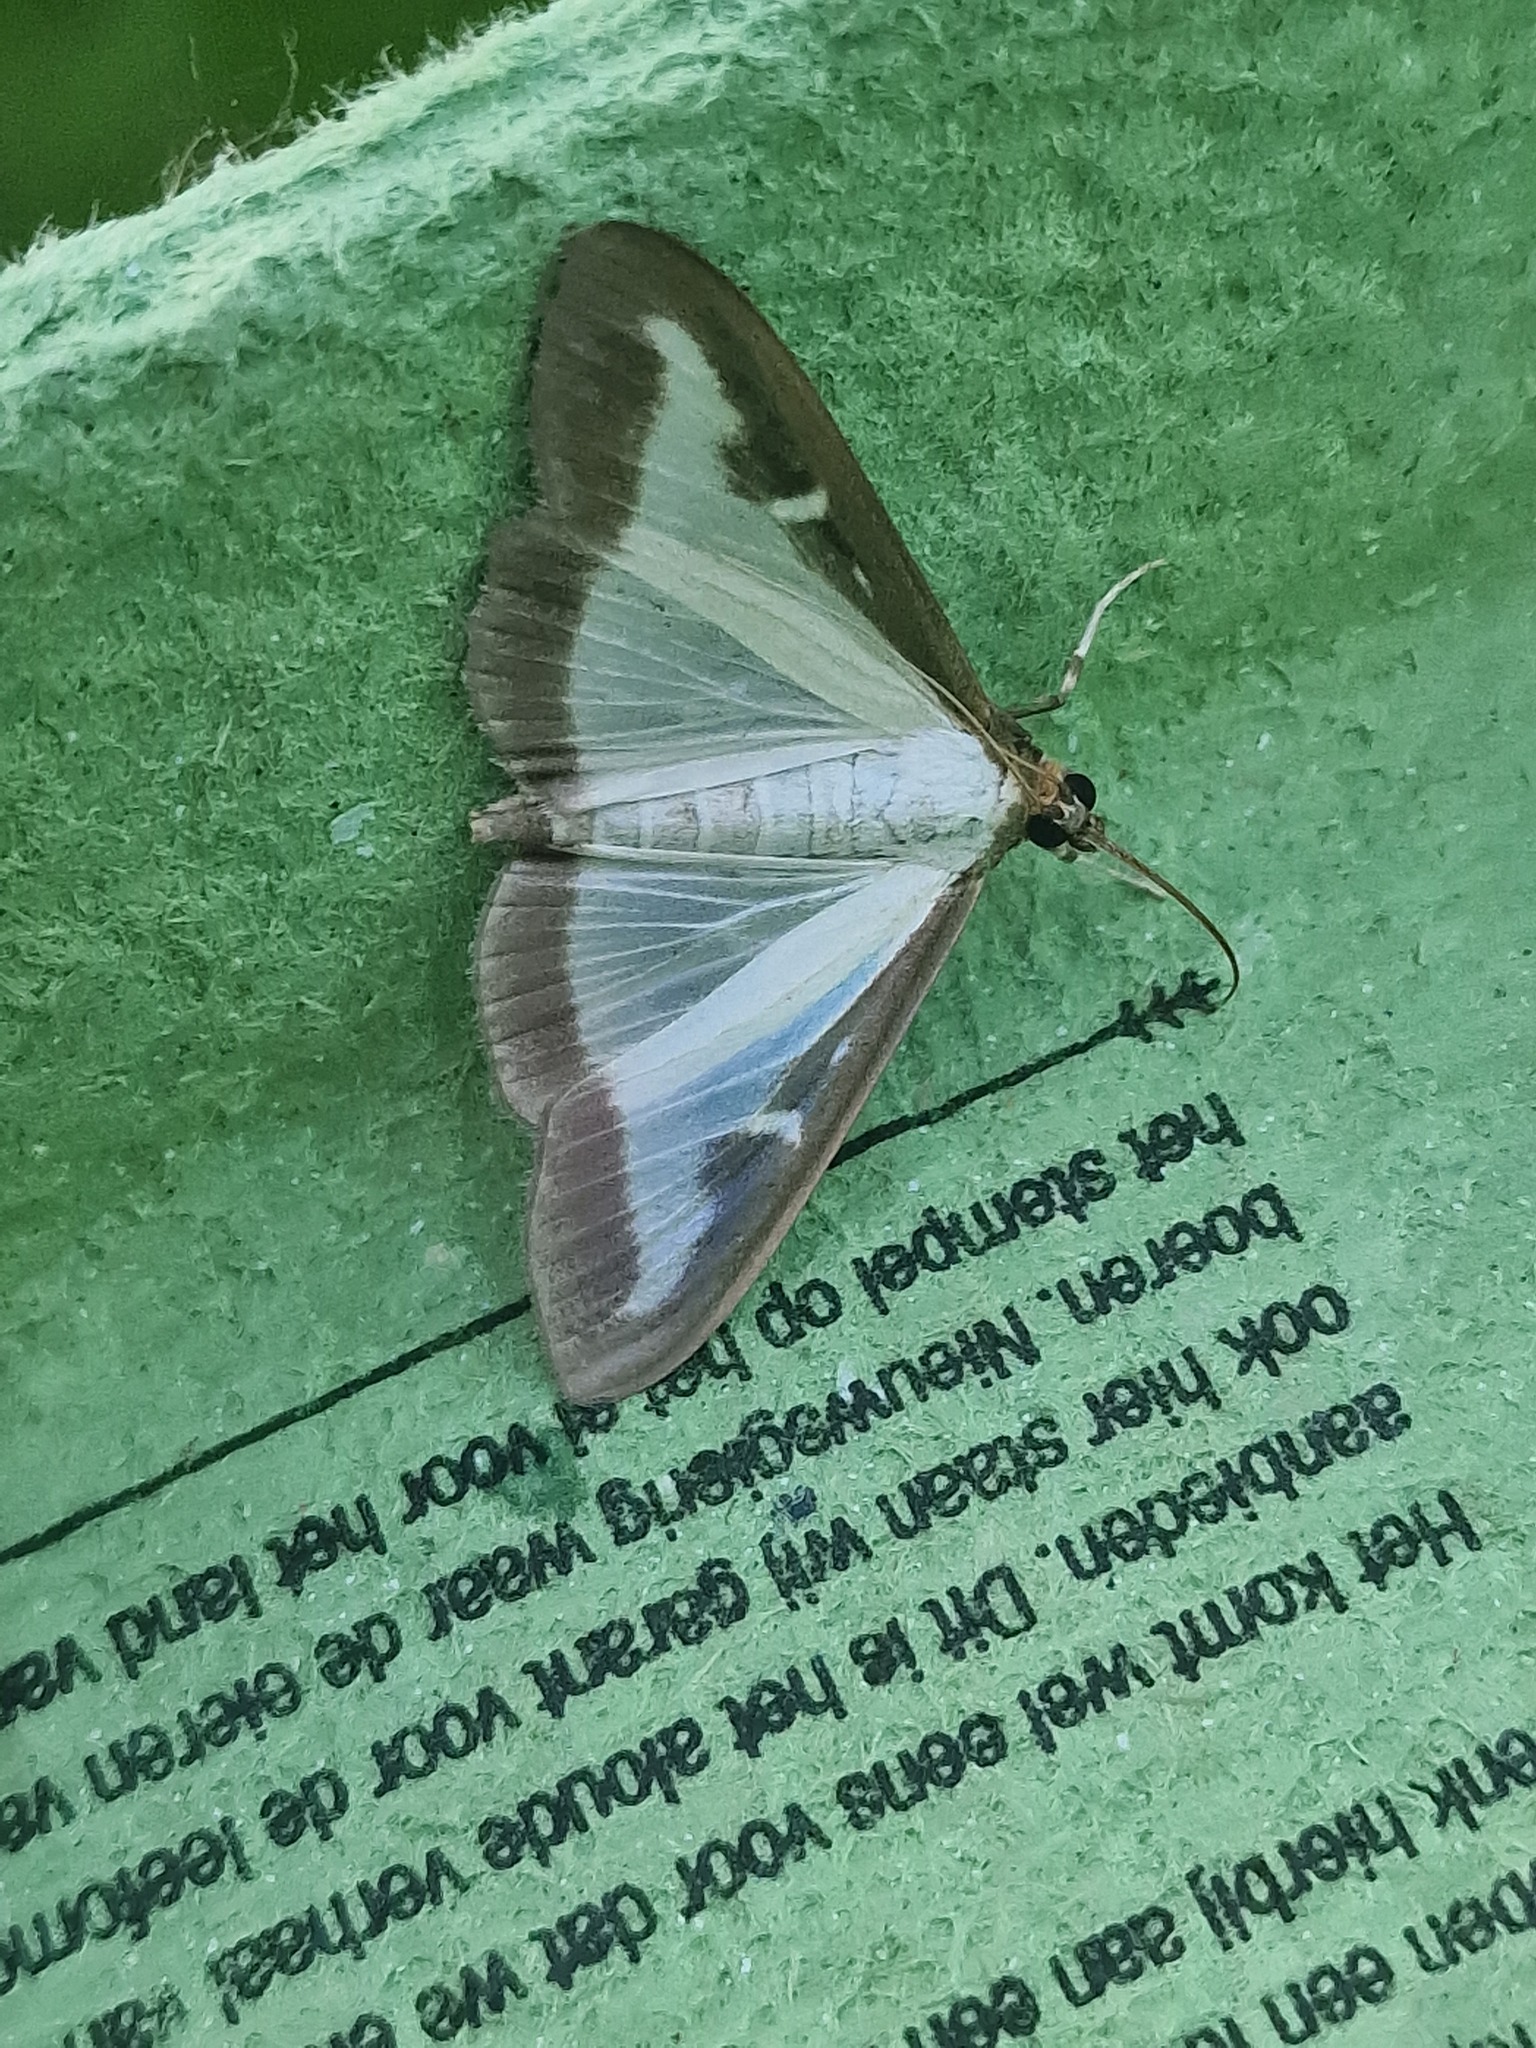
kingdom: Animalia
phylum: Arthropoda
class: Insecta
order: Lepidoptera
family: Crambidae
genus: Cydalima
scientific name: Cydalima perspectalis
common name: Box tree moth
